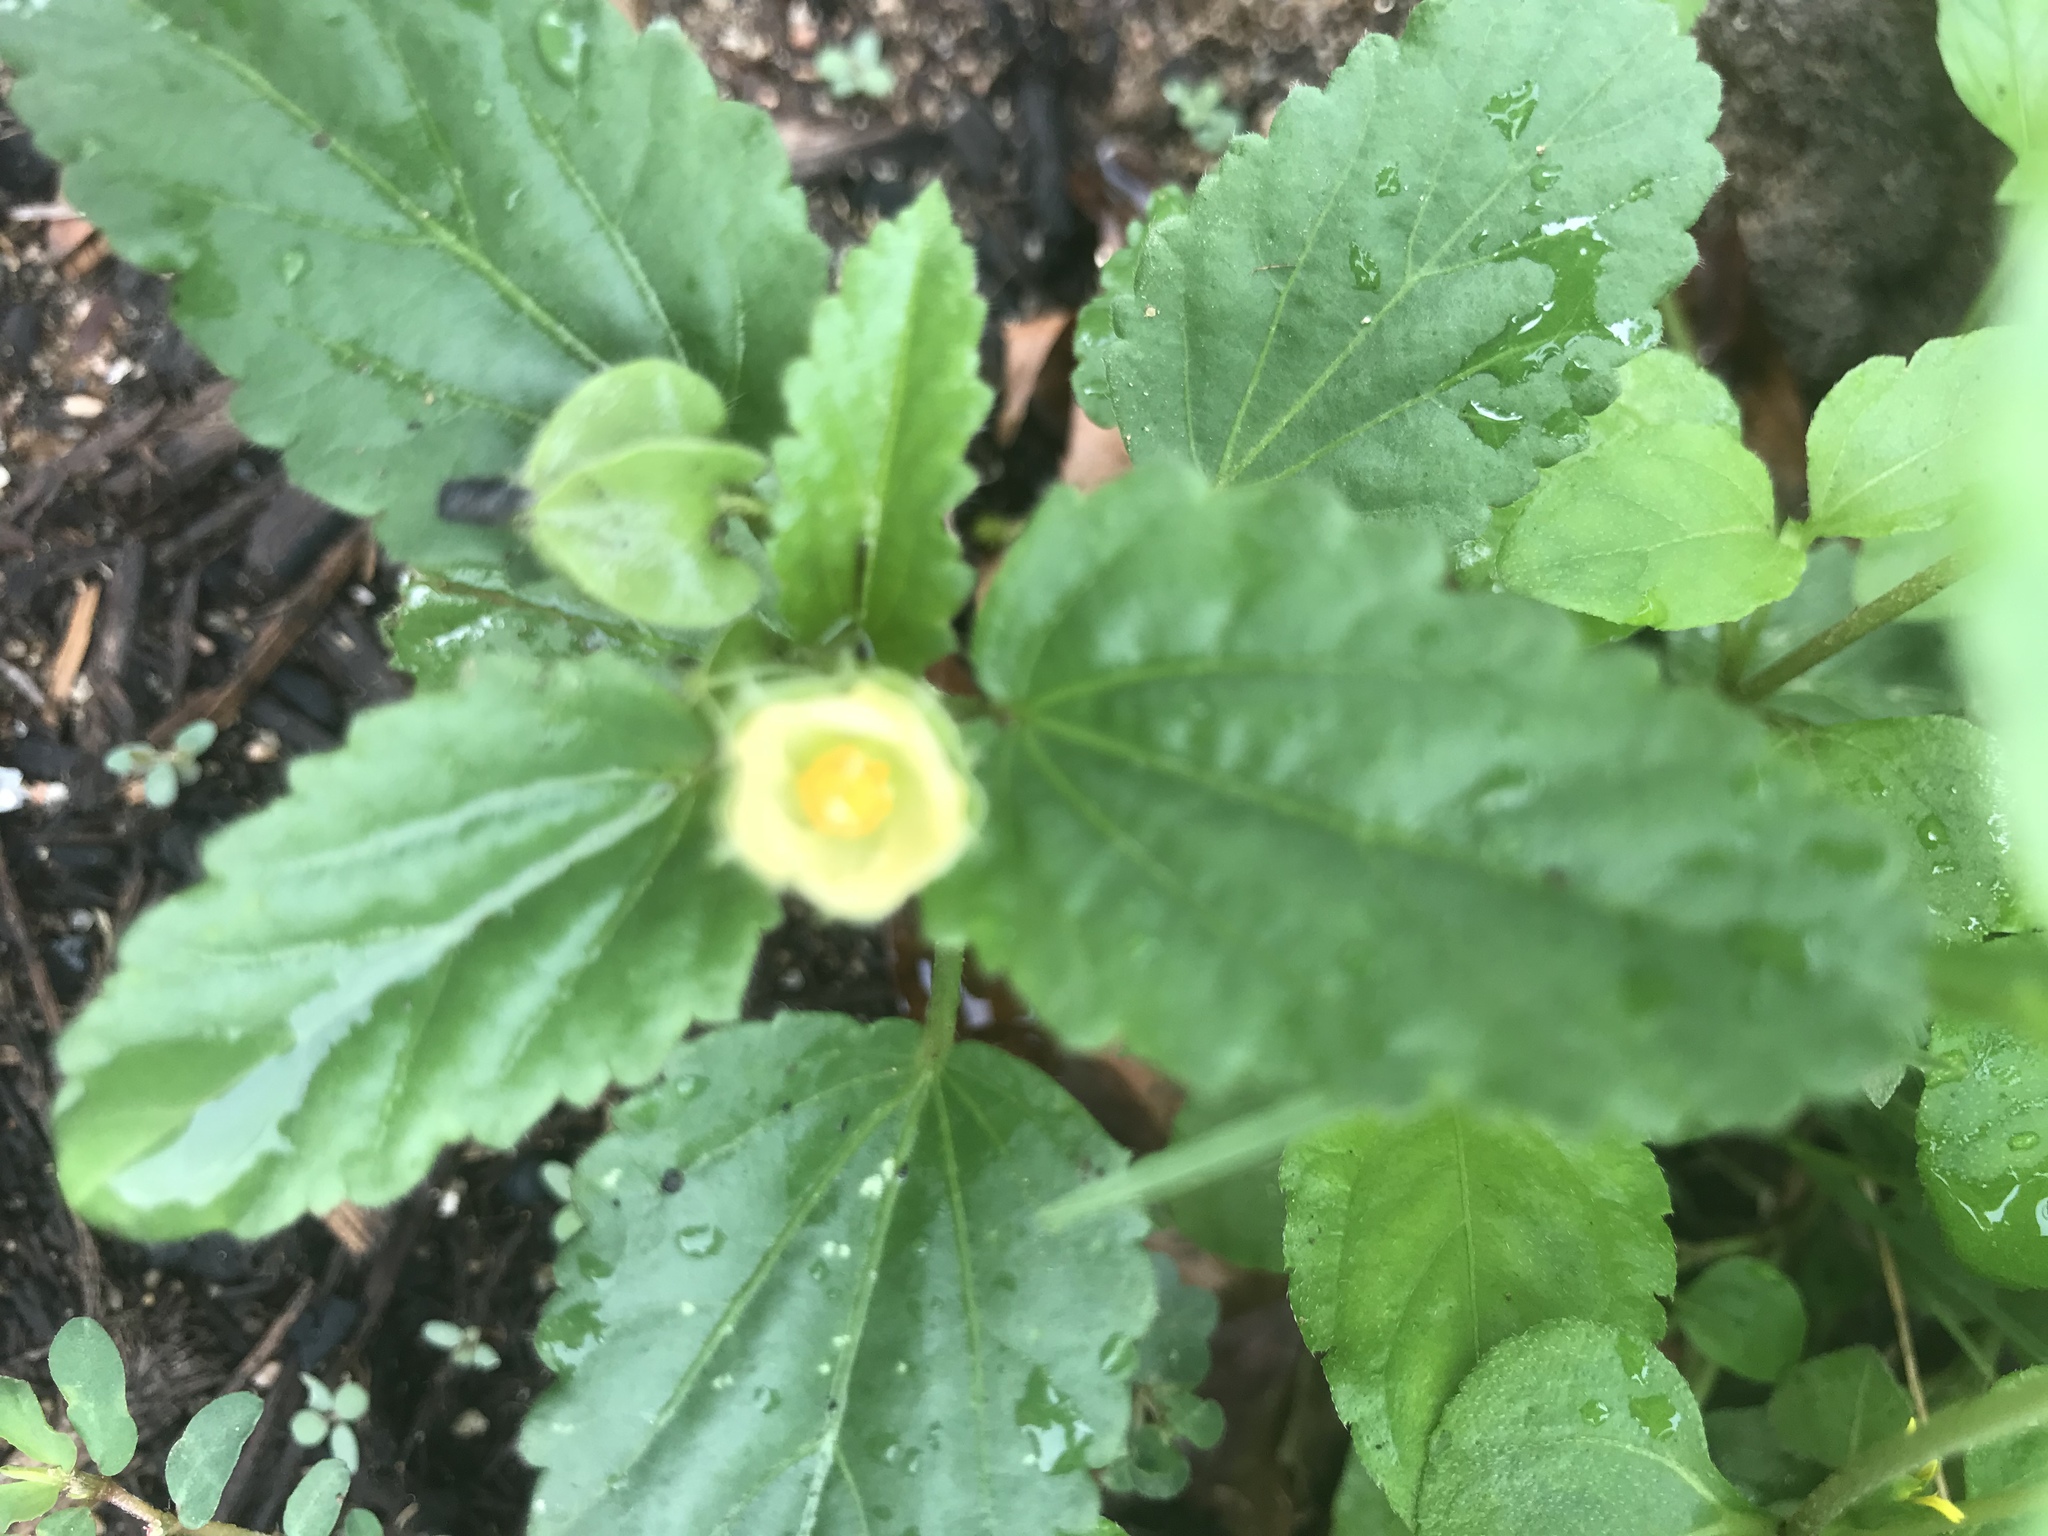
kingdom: Plantae
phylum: Tracheophyta
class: Magnoliopsida
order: Malvales
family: Malvaceae
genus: Malvastrum
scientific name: Malvastrum coromandelianum
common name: Threelobe false mallow
